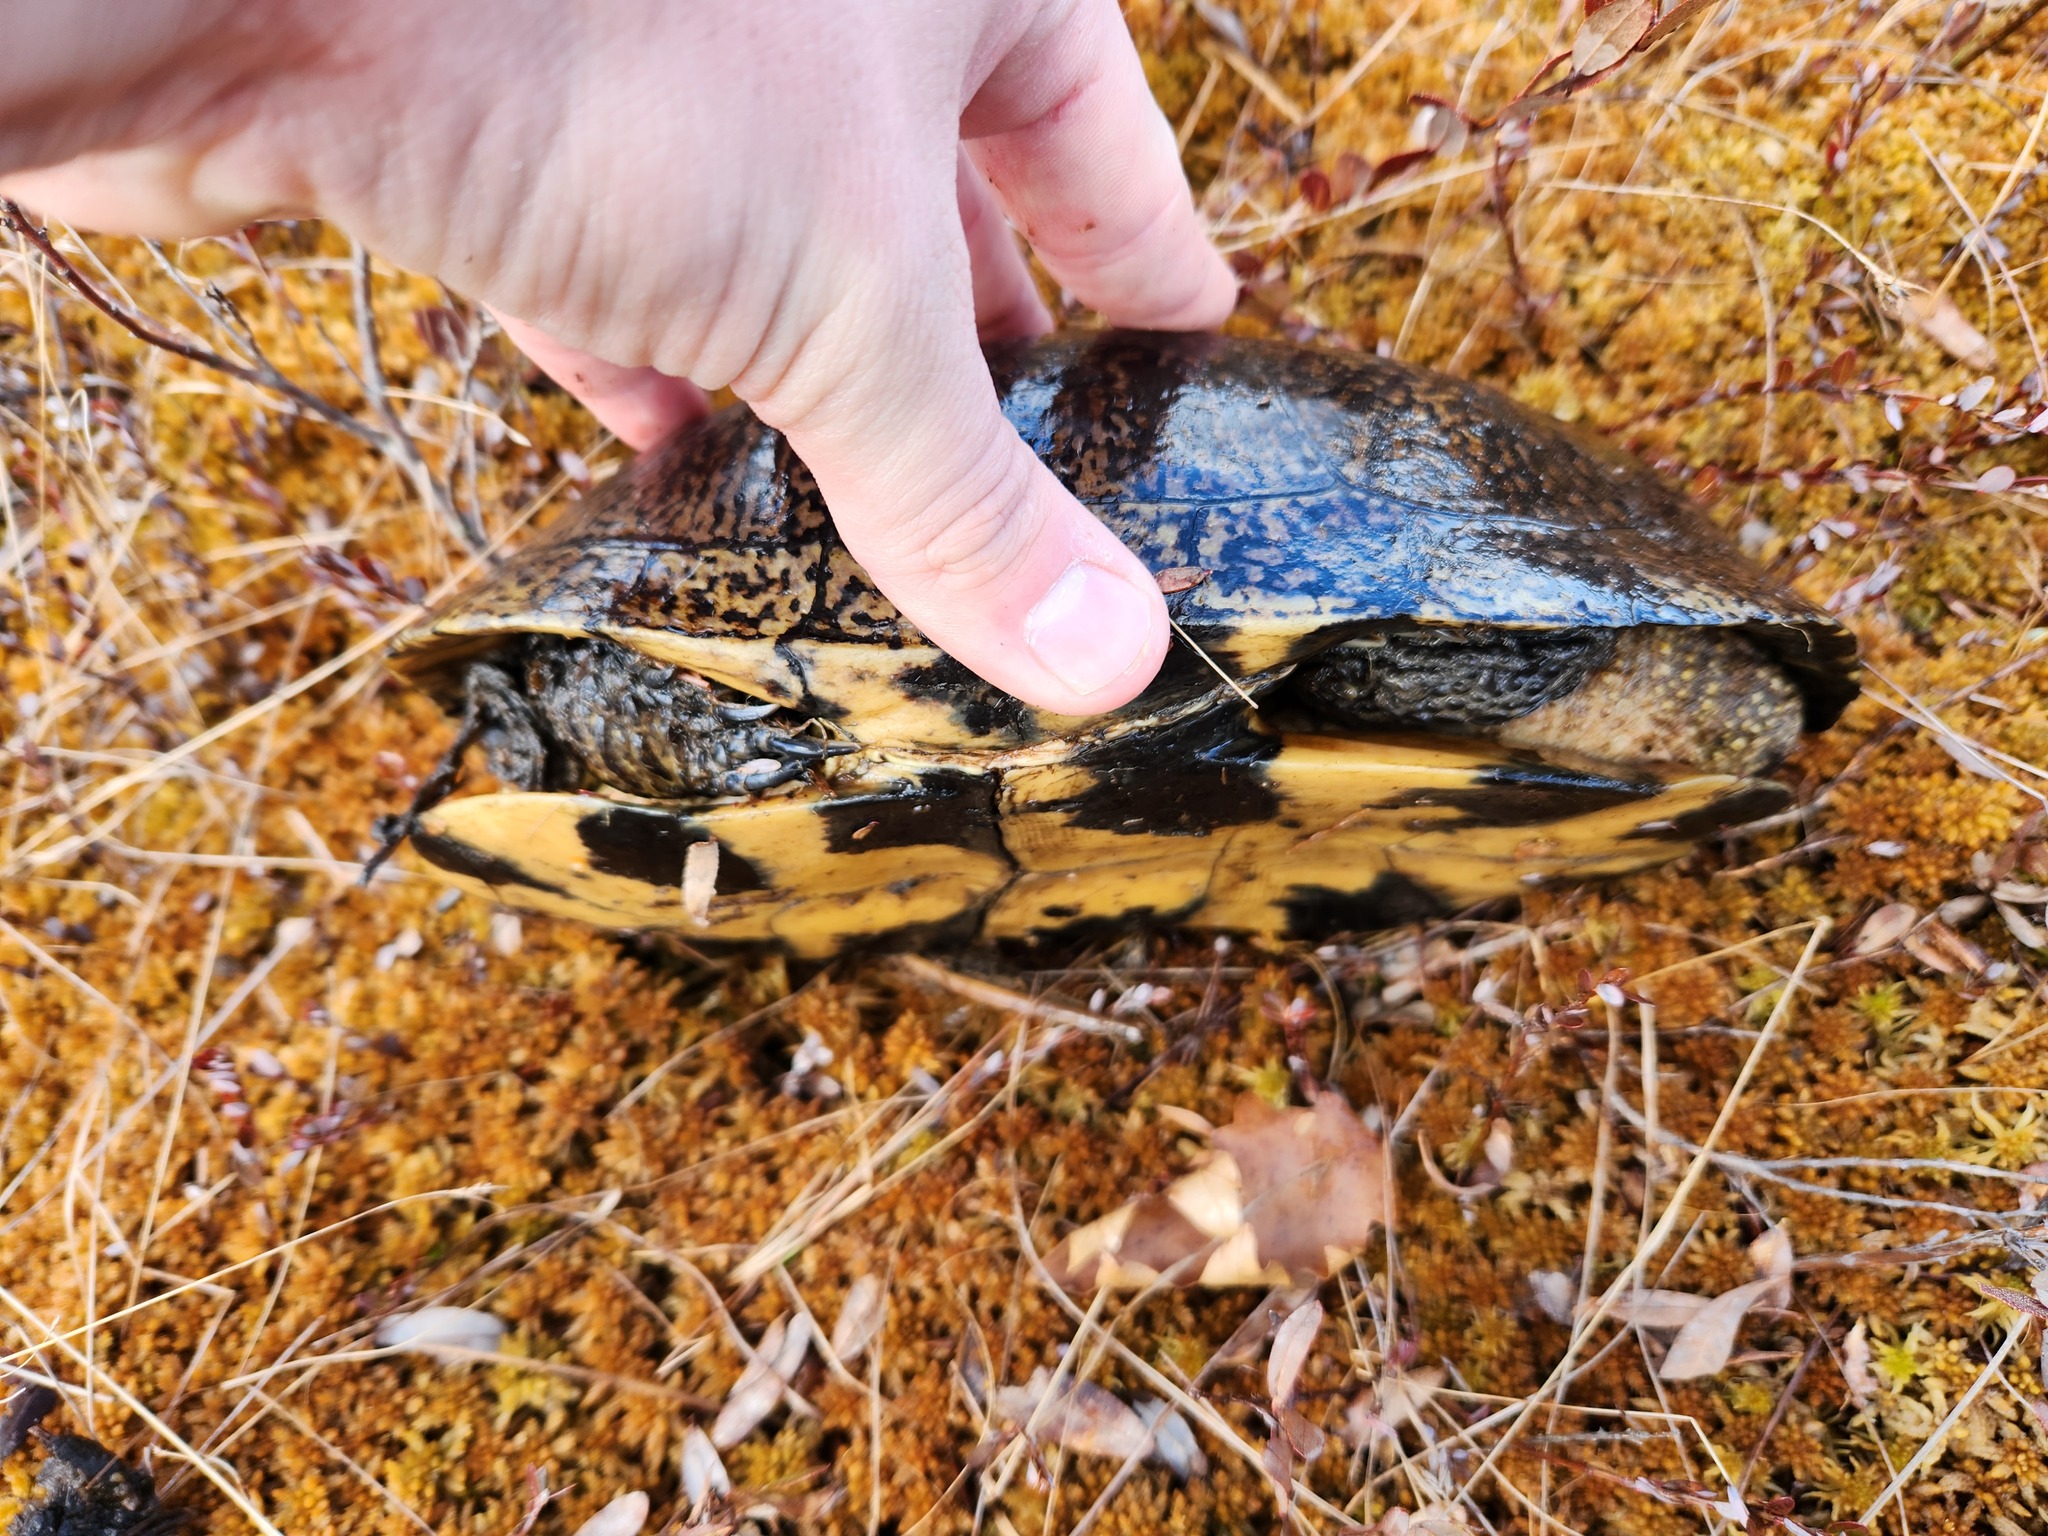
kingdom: Animalia
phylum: Chordata
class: Testudines
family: Emydidae
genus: Emys
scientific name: Emys blandingii
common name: Blanding's turtle
